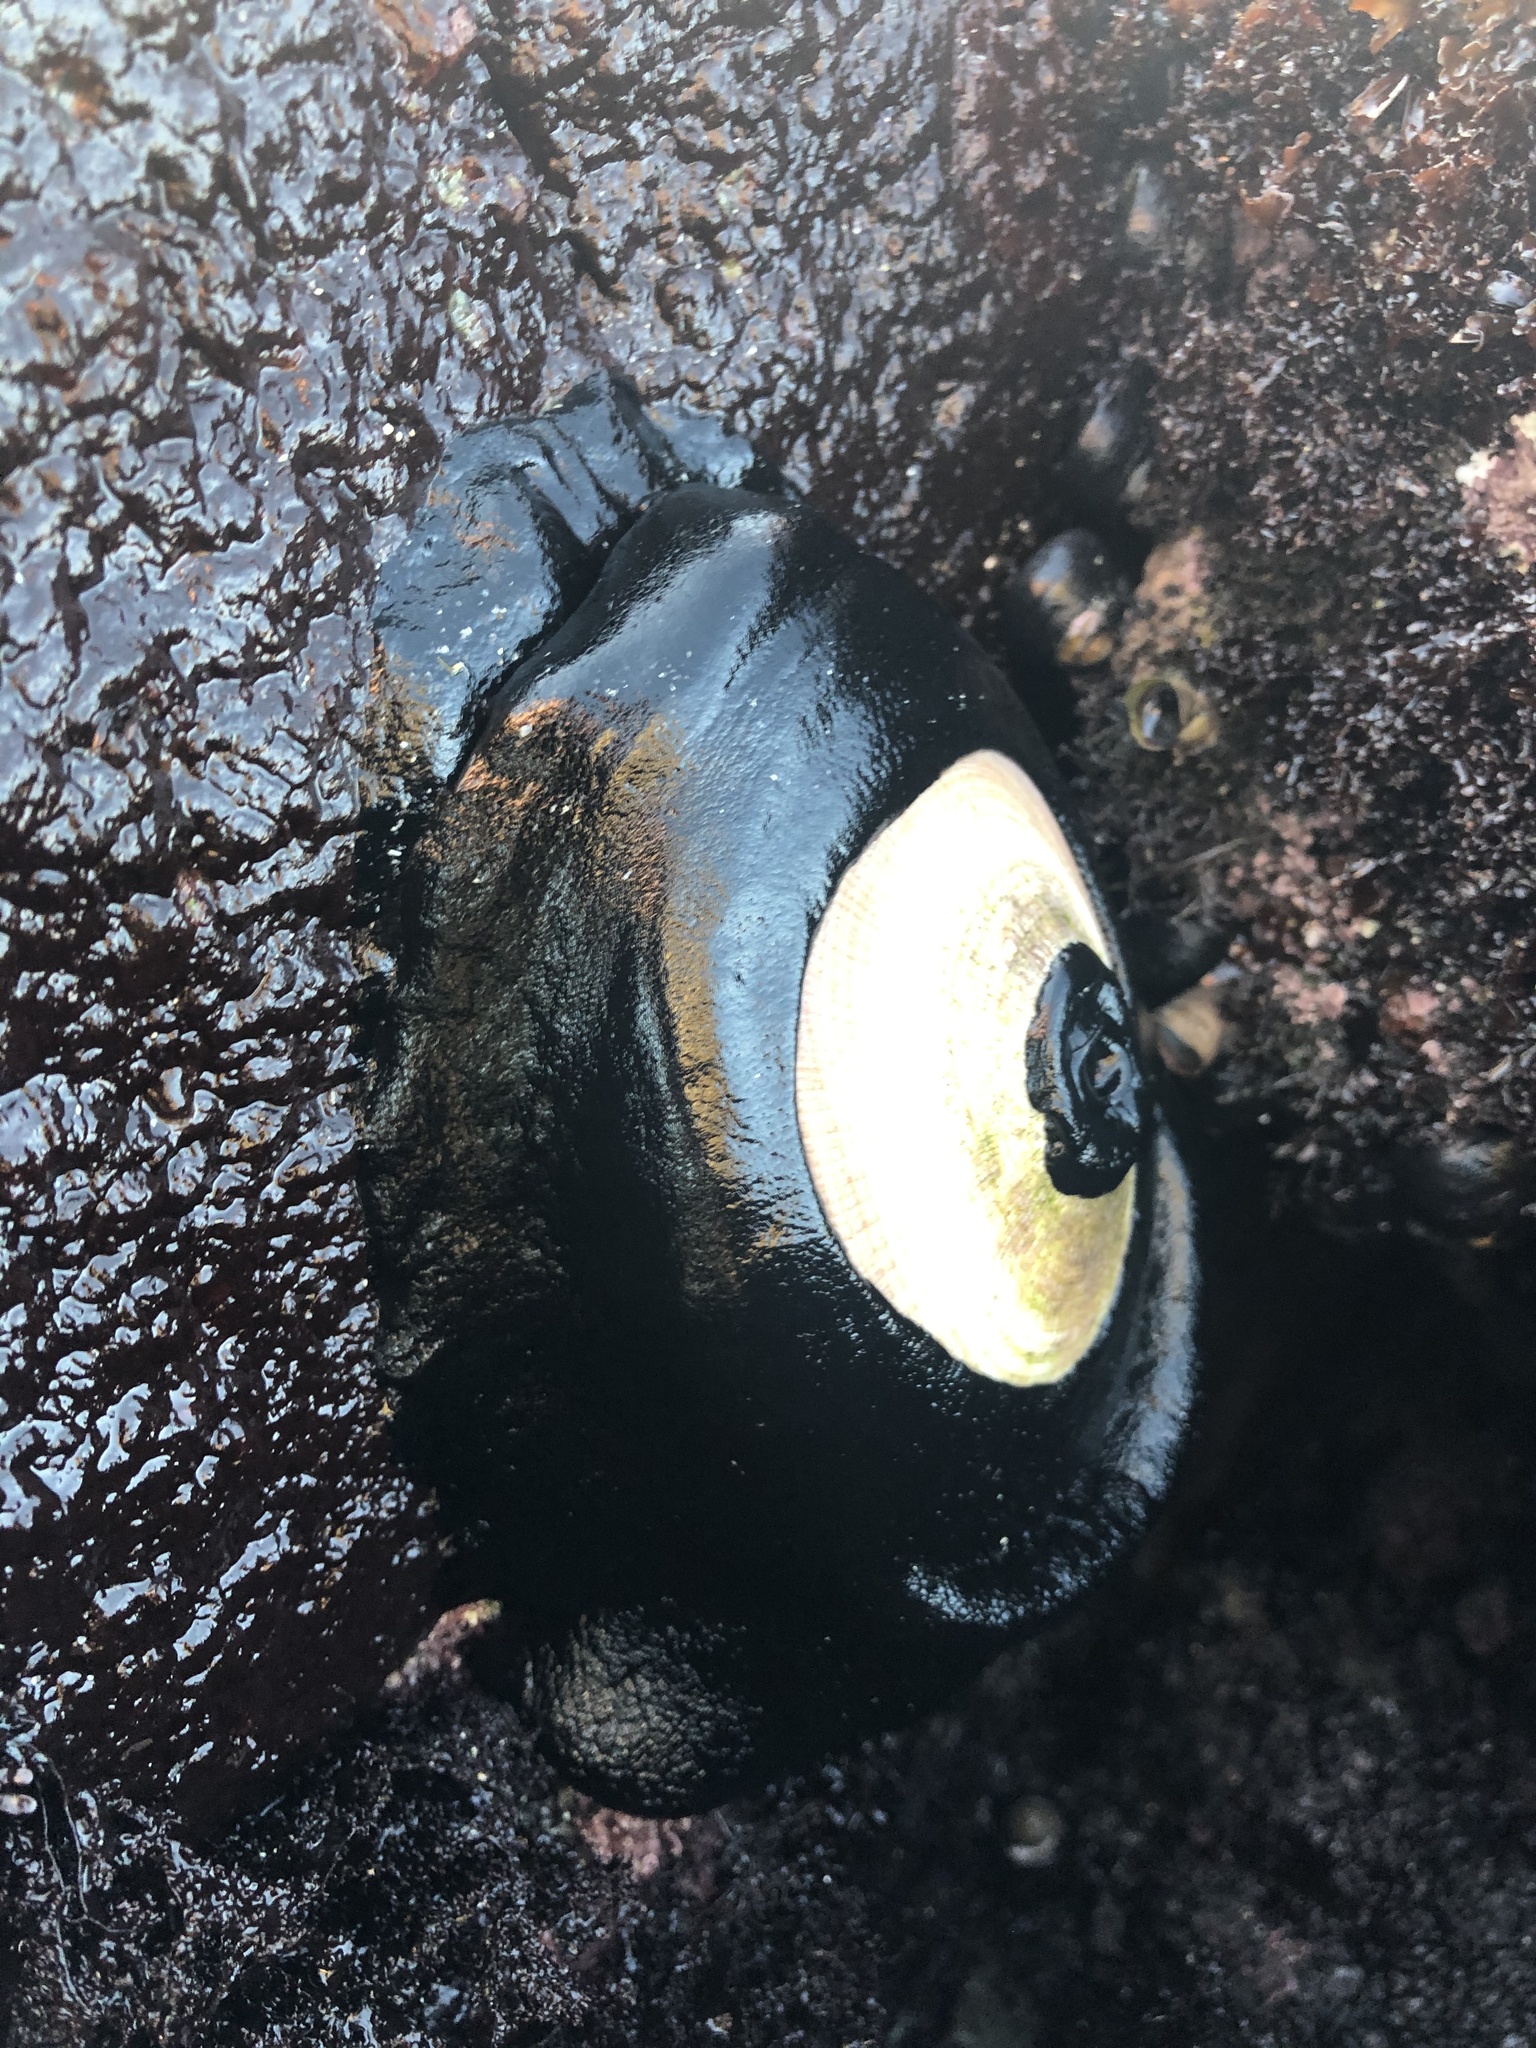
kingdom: Animalia
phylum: Mollusca
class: Gastropoda
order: Lepetellida
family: Fissurellidae
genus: Megathura
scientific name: Megathura crenulata
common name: Giant keyhole limpet
